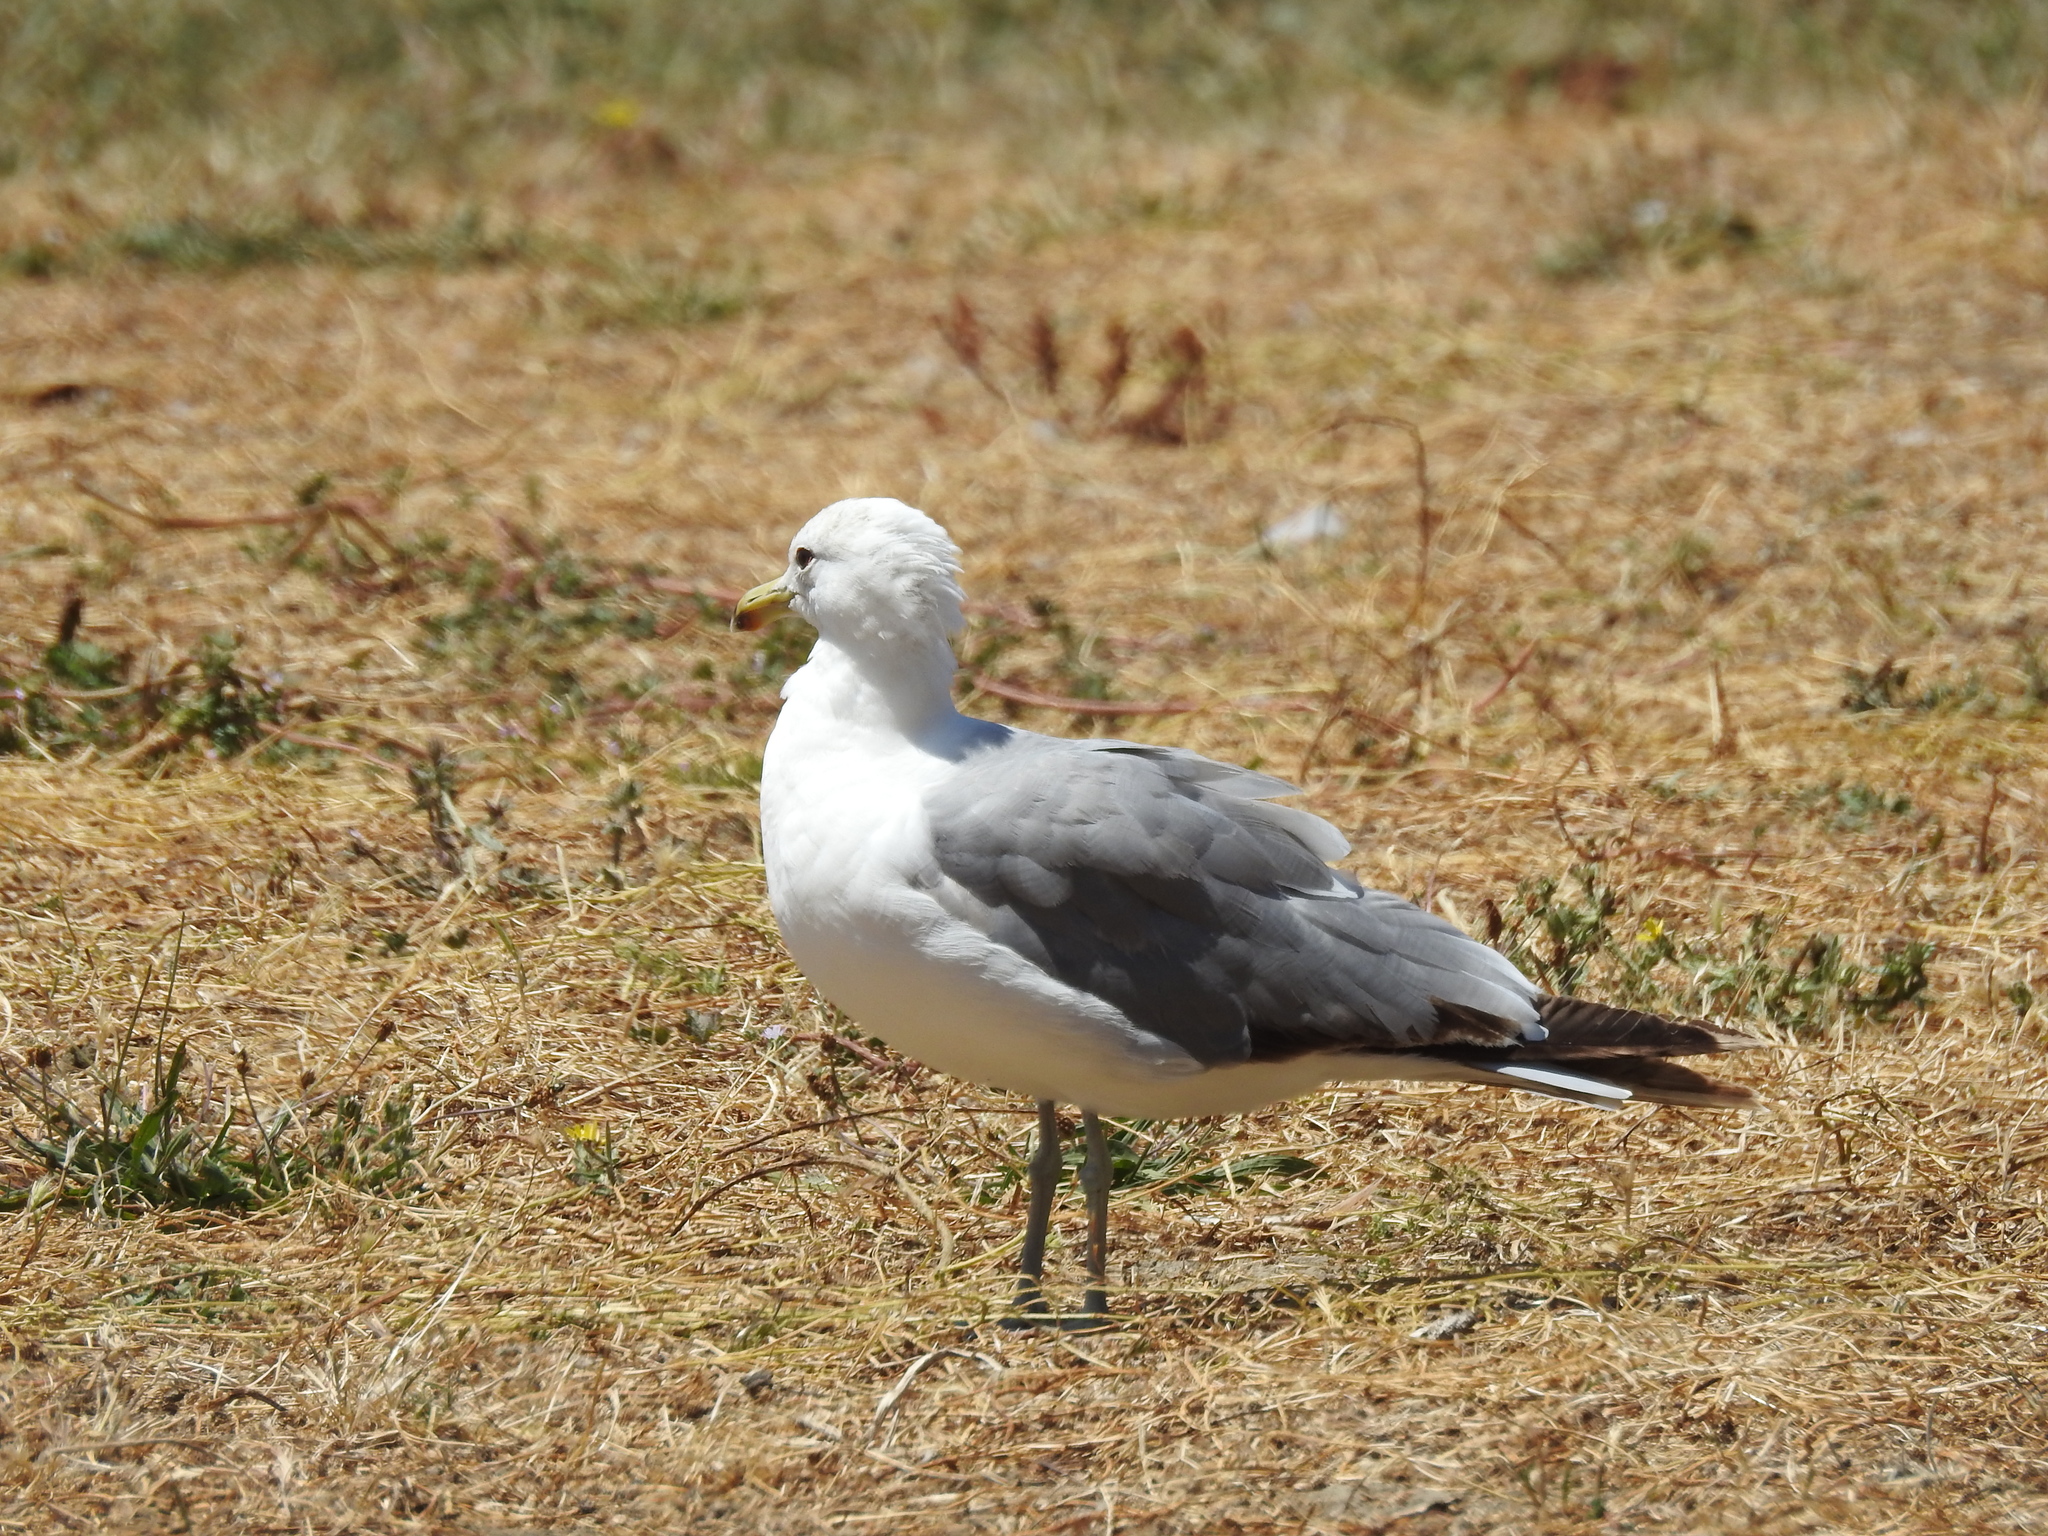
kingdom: Animalia
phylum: Chordata
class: Aves
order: Charadriiformes
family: Laridae
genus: Larus
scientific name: Larus californicus
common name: California gull
